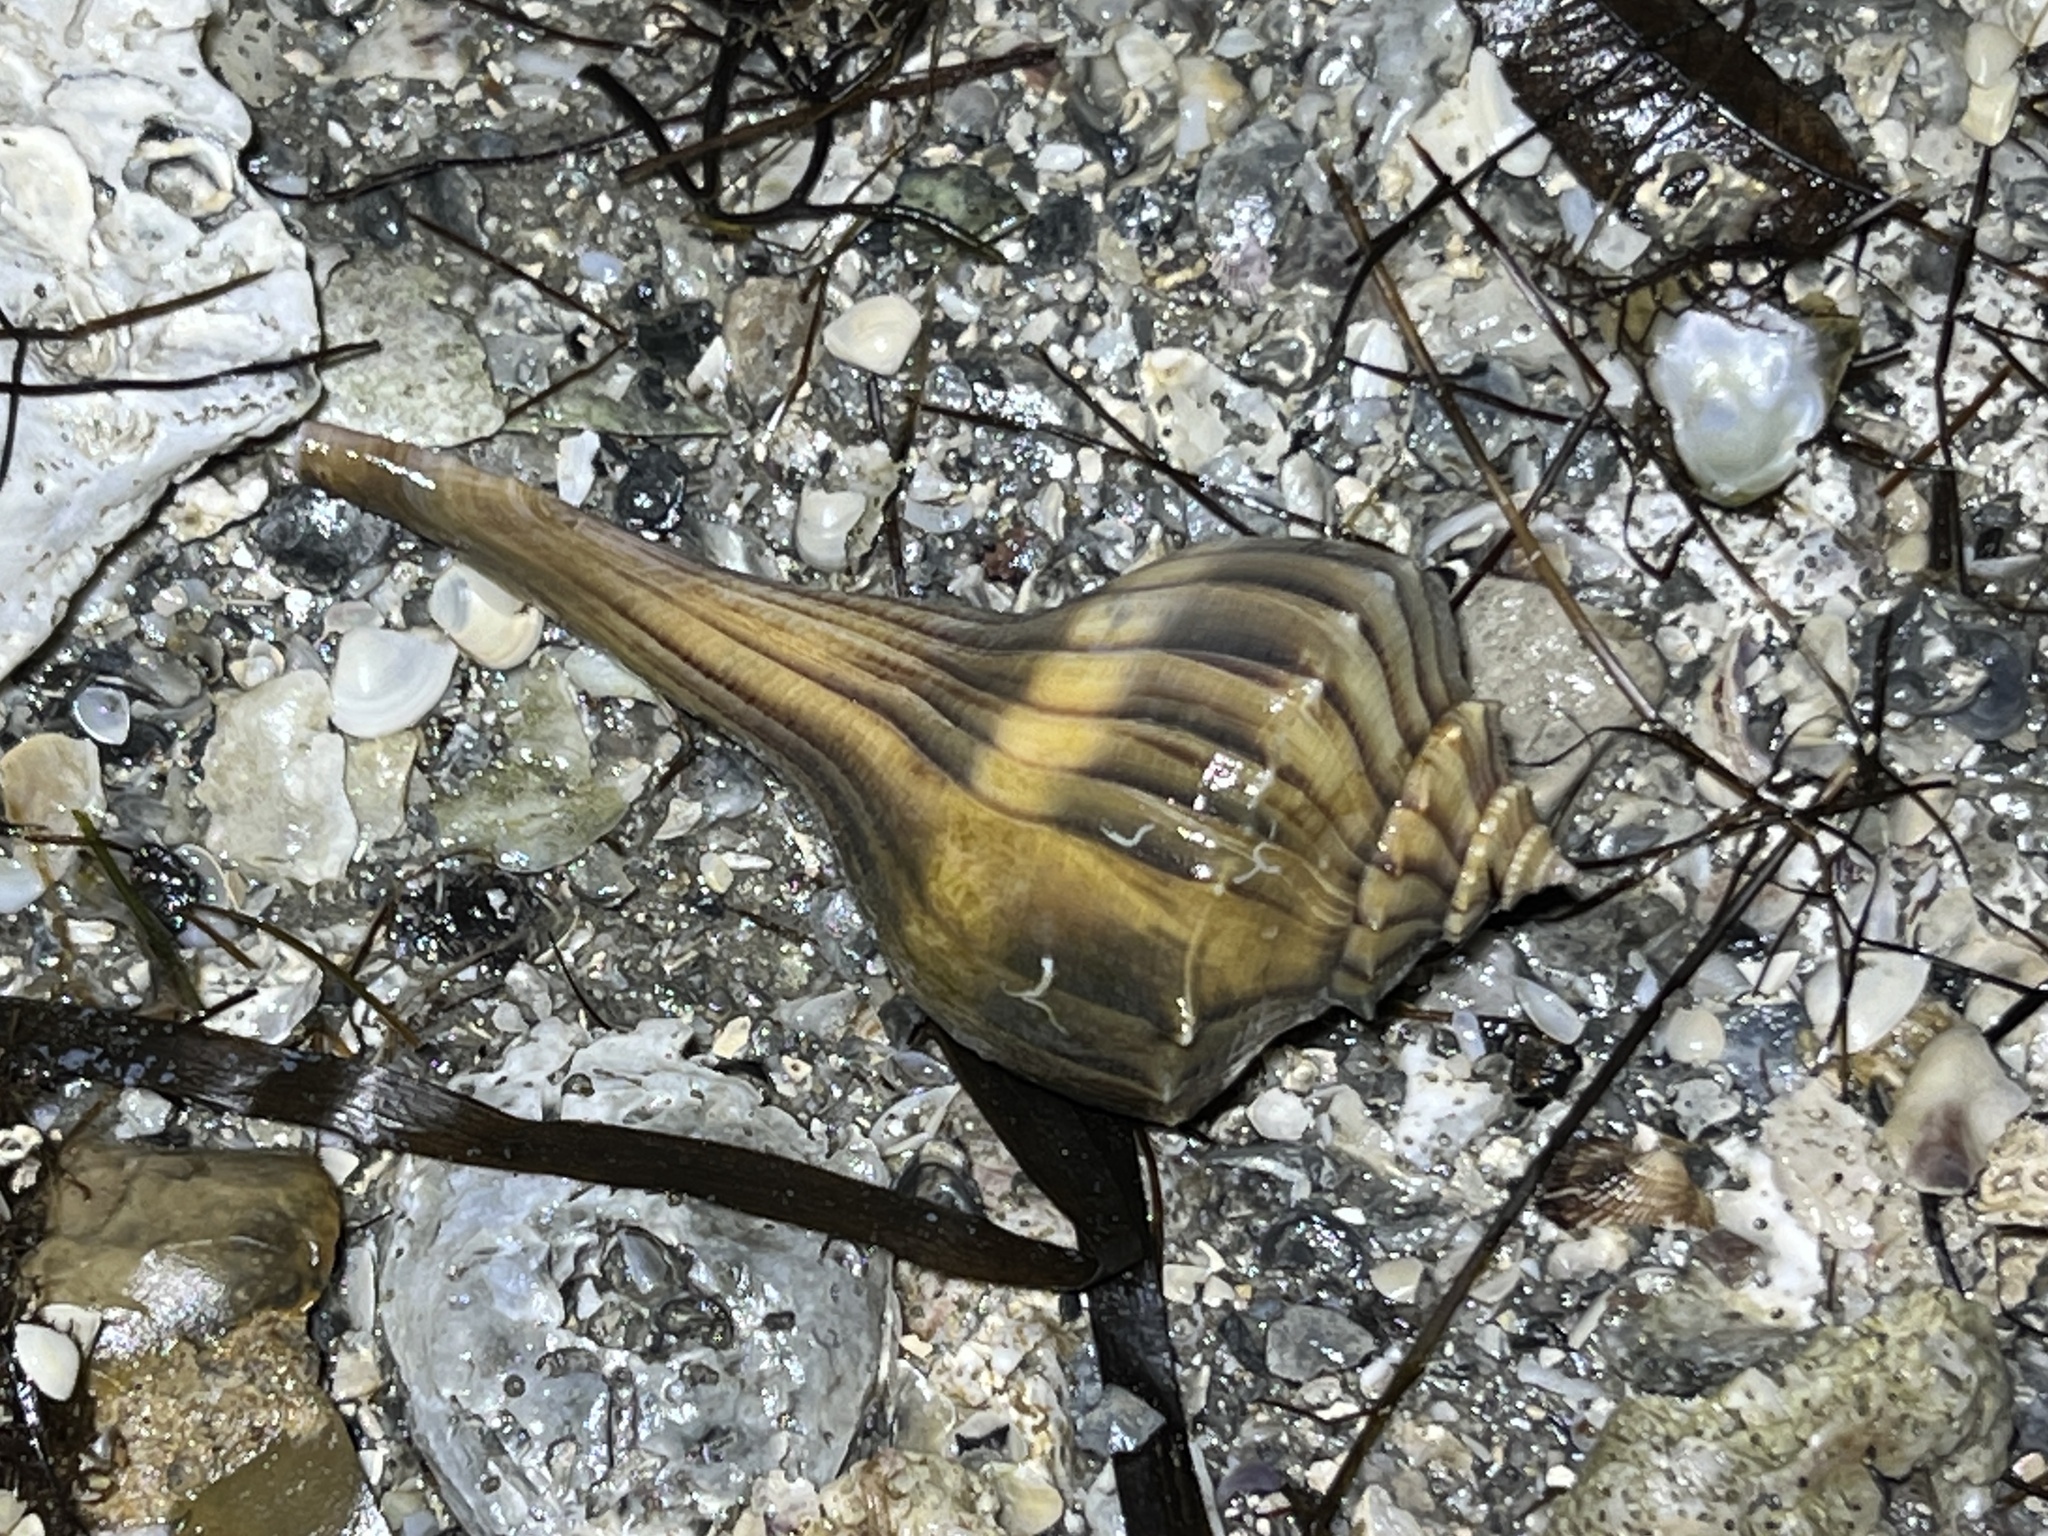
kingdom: Animalia
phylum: Mollusca
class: Gastropoda
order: Neogastropoda
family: Busyconidae
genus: Sinistrofulgur
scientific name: Sinistrofulgur pulleyi
